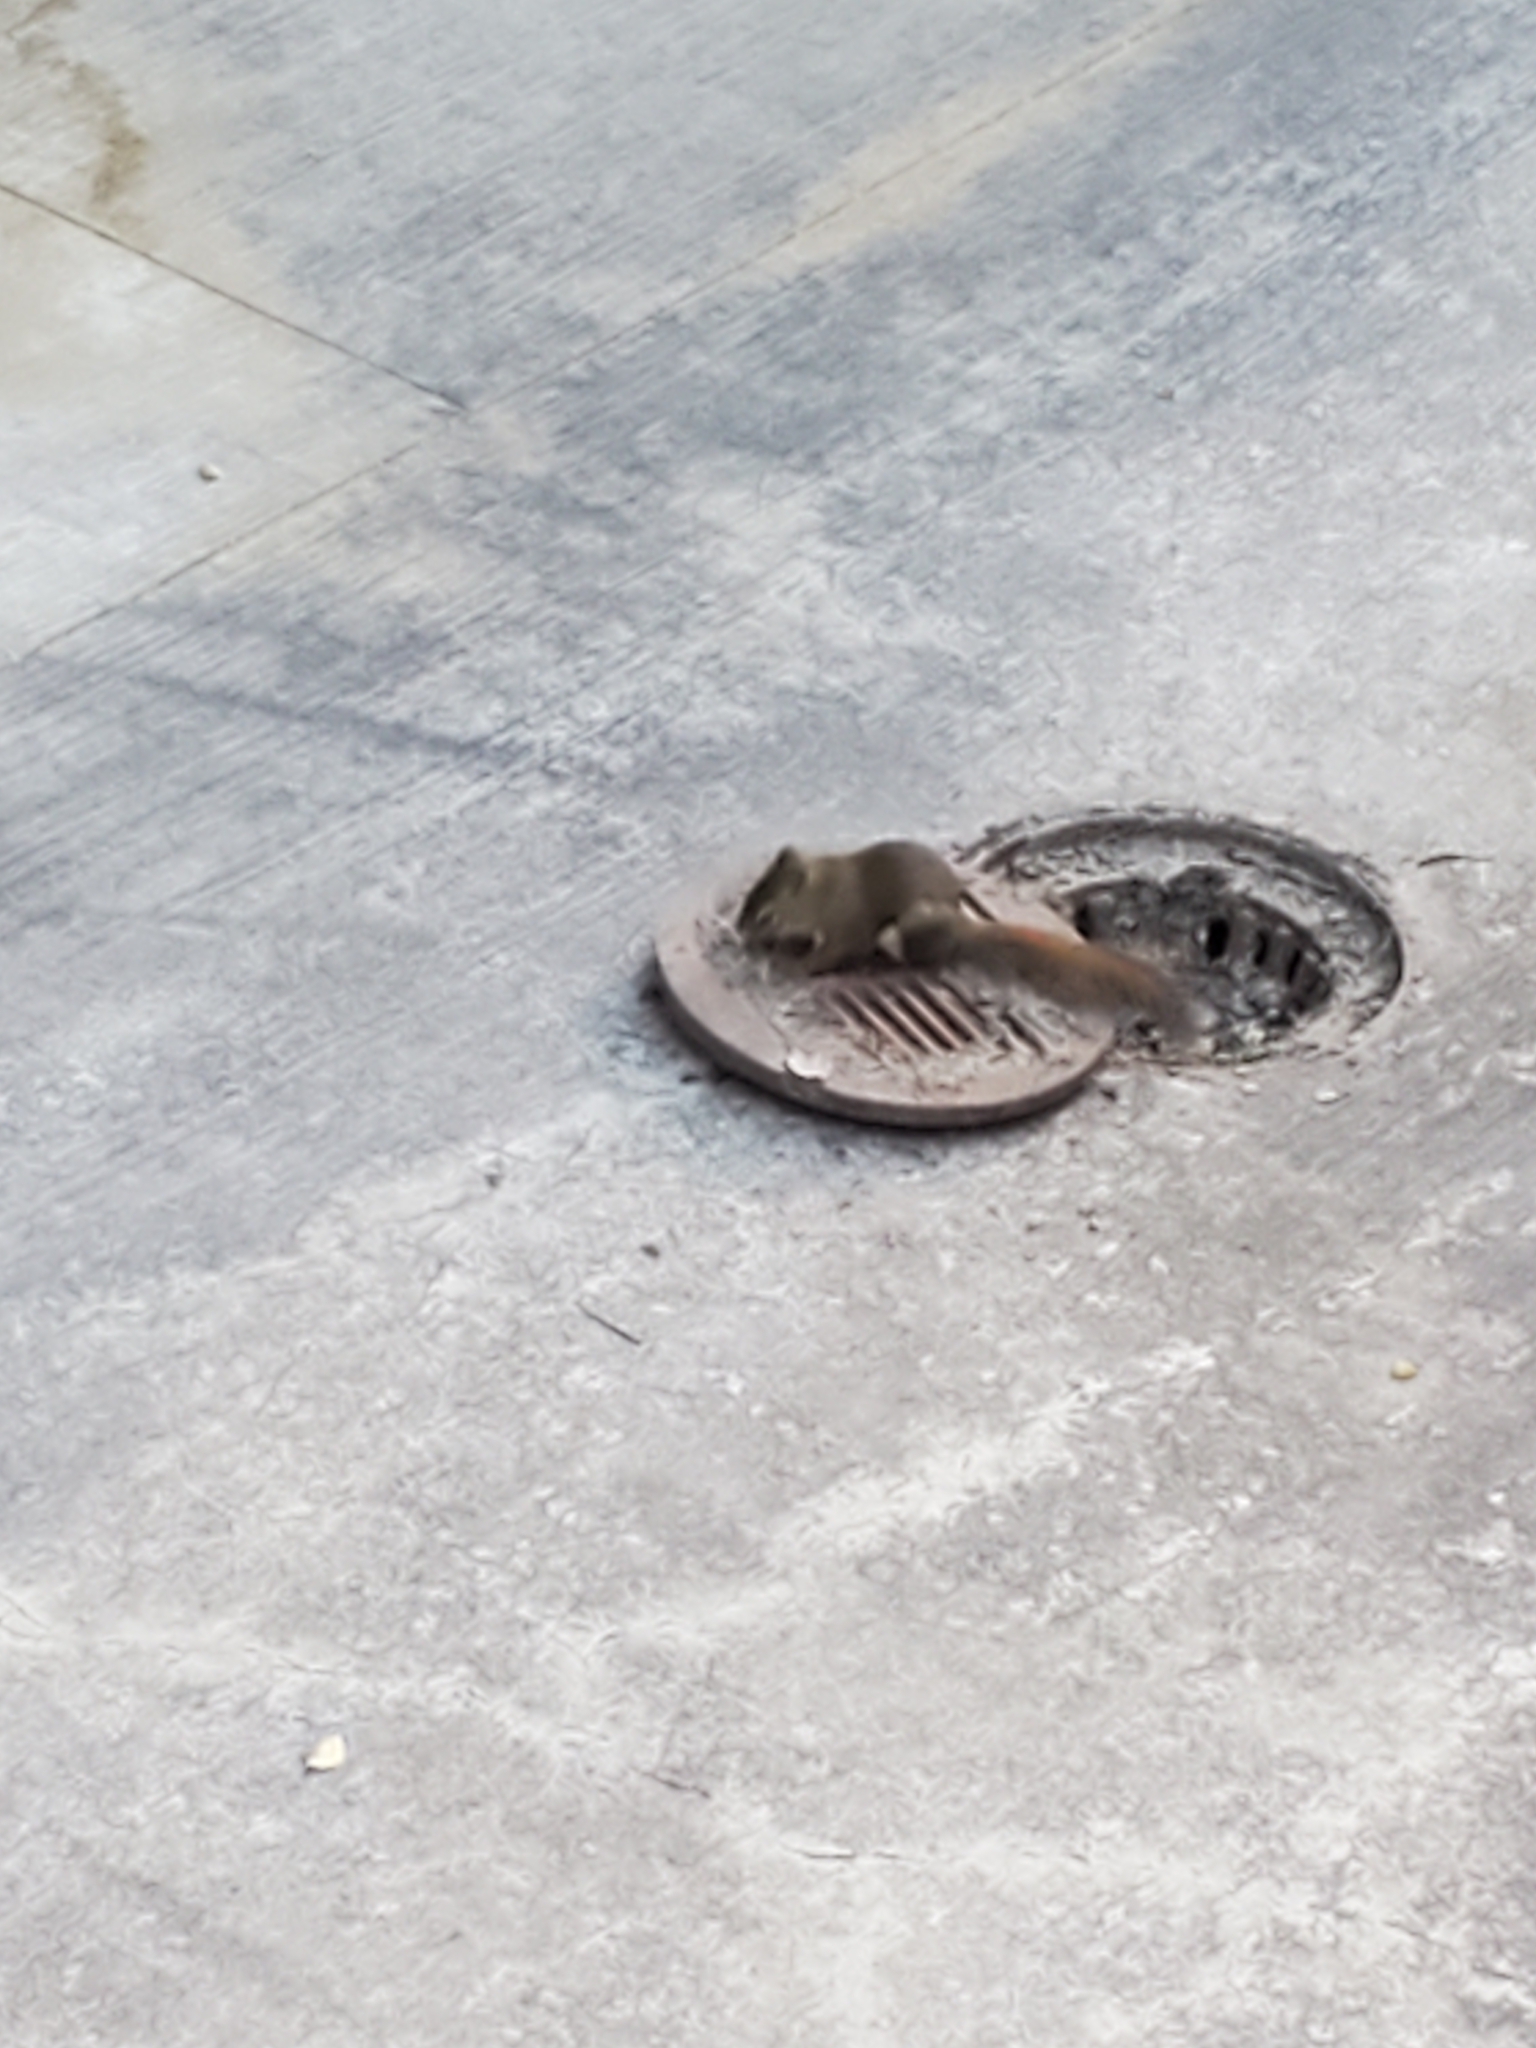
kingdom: Animalia
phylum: Chordata
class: Mammalia
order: Rodentia
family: Sciuridae
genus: Tamiasciurus
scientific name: Tamiasciurus hudsonicus
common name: Red squirrel
